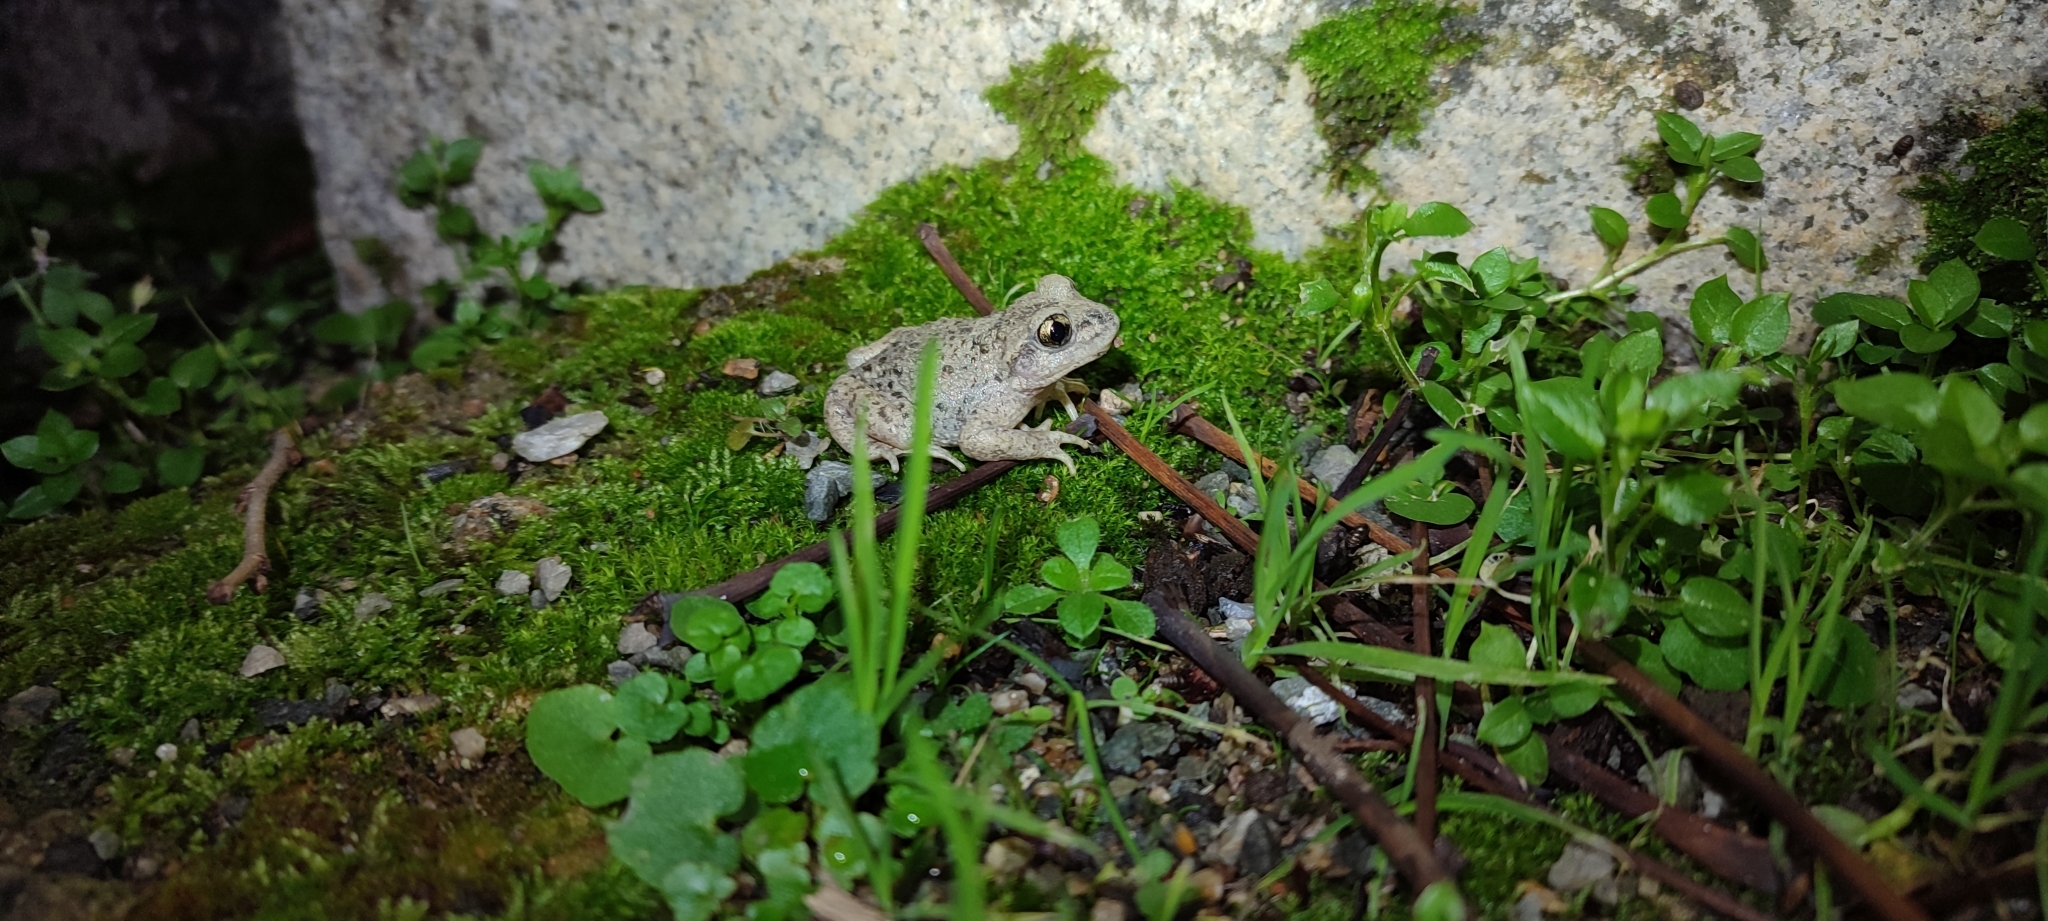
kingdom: Animalia
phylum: Chordata
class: Amphibia
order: Anura
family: Alytidae
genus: Alytes
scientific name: Alytes obstetricans
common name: Midwife toad
